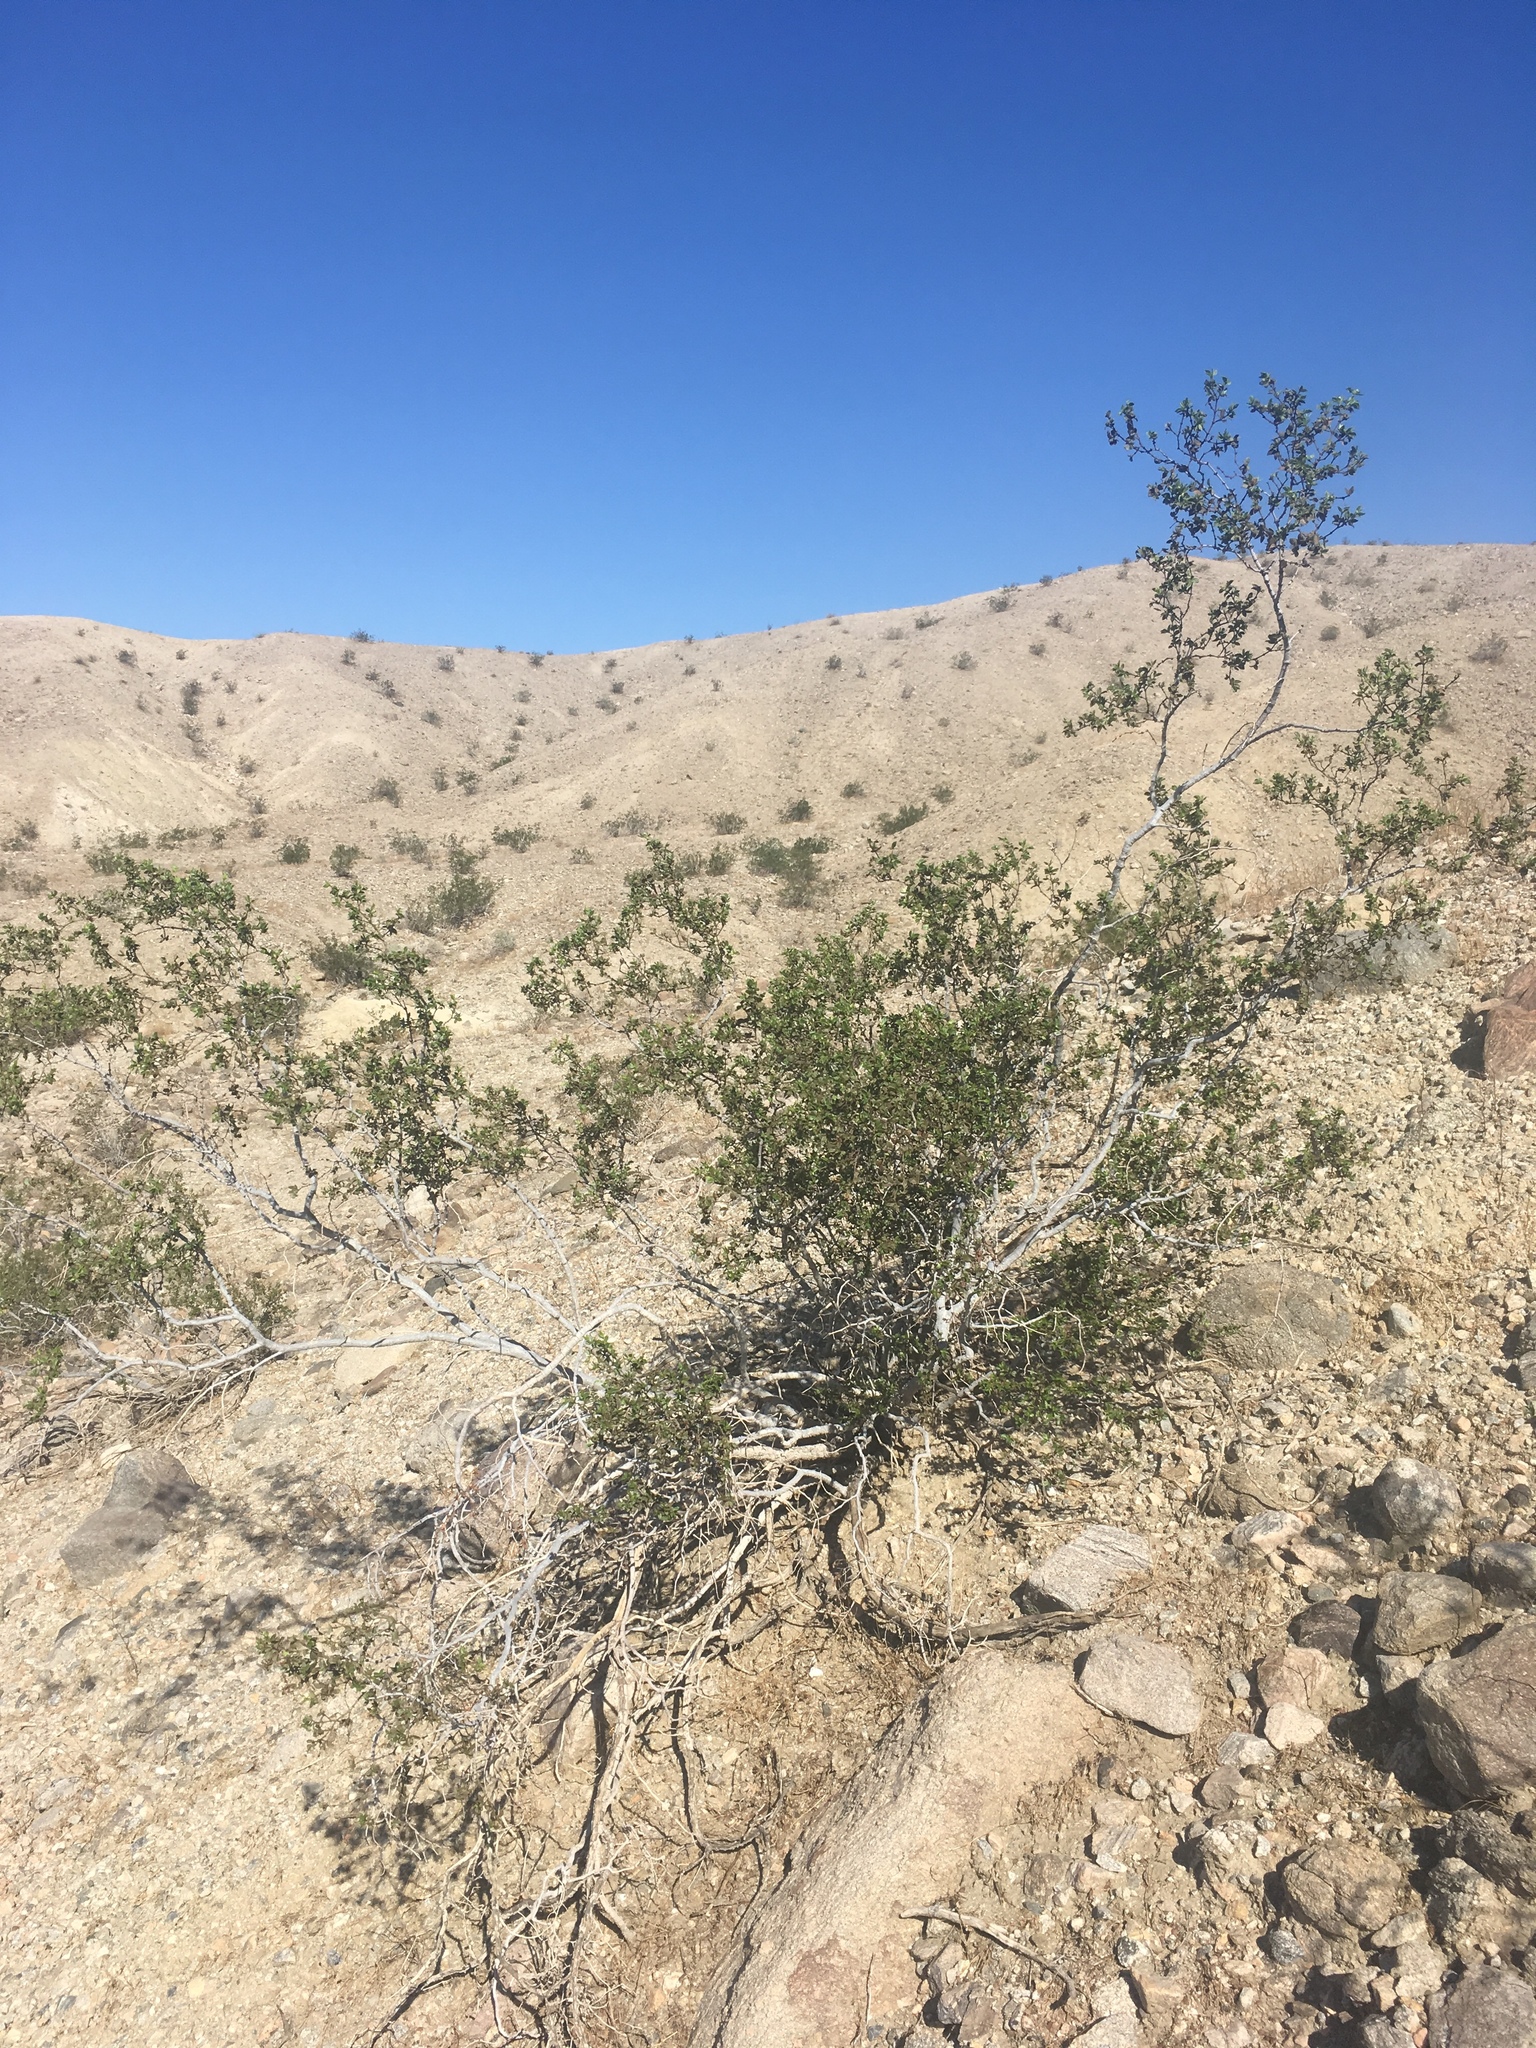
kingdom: Plantae
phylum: Tracheophyta
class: Magnoliopsida
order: Zygophyllales
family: Zygophyllaceae
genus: Larrea
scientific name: Larrea tridentata
